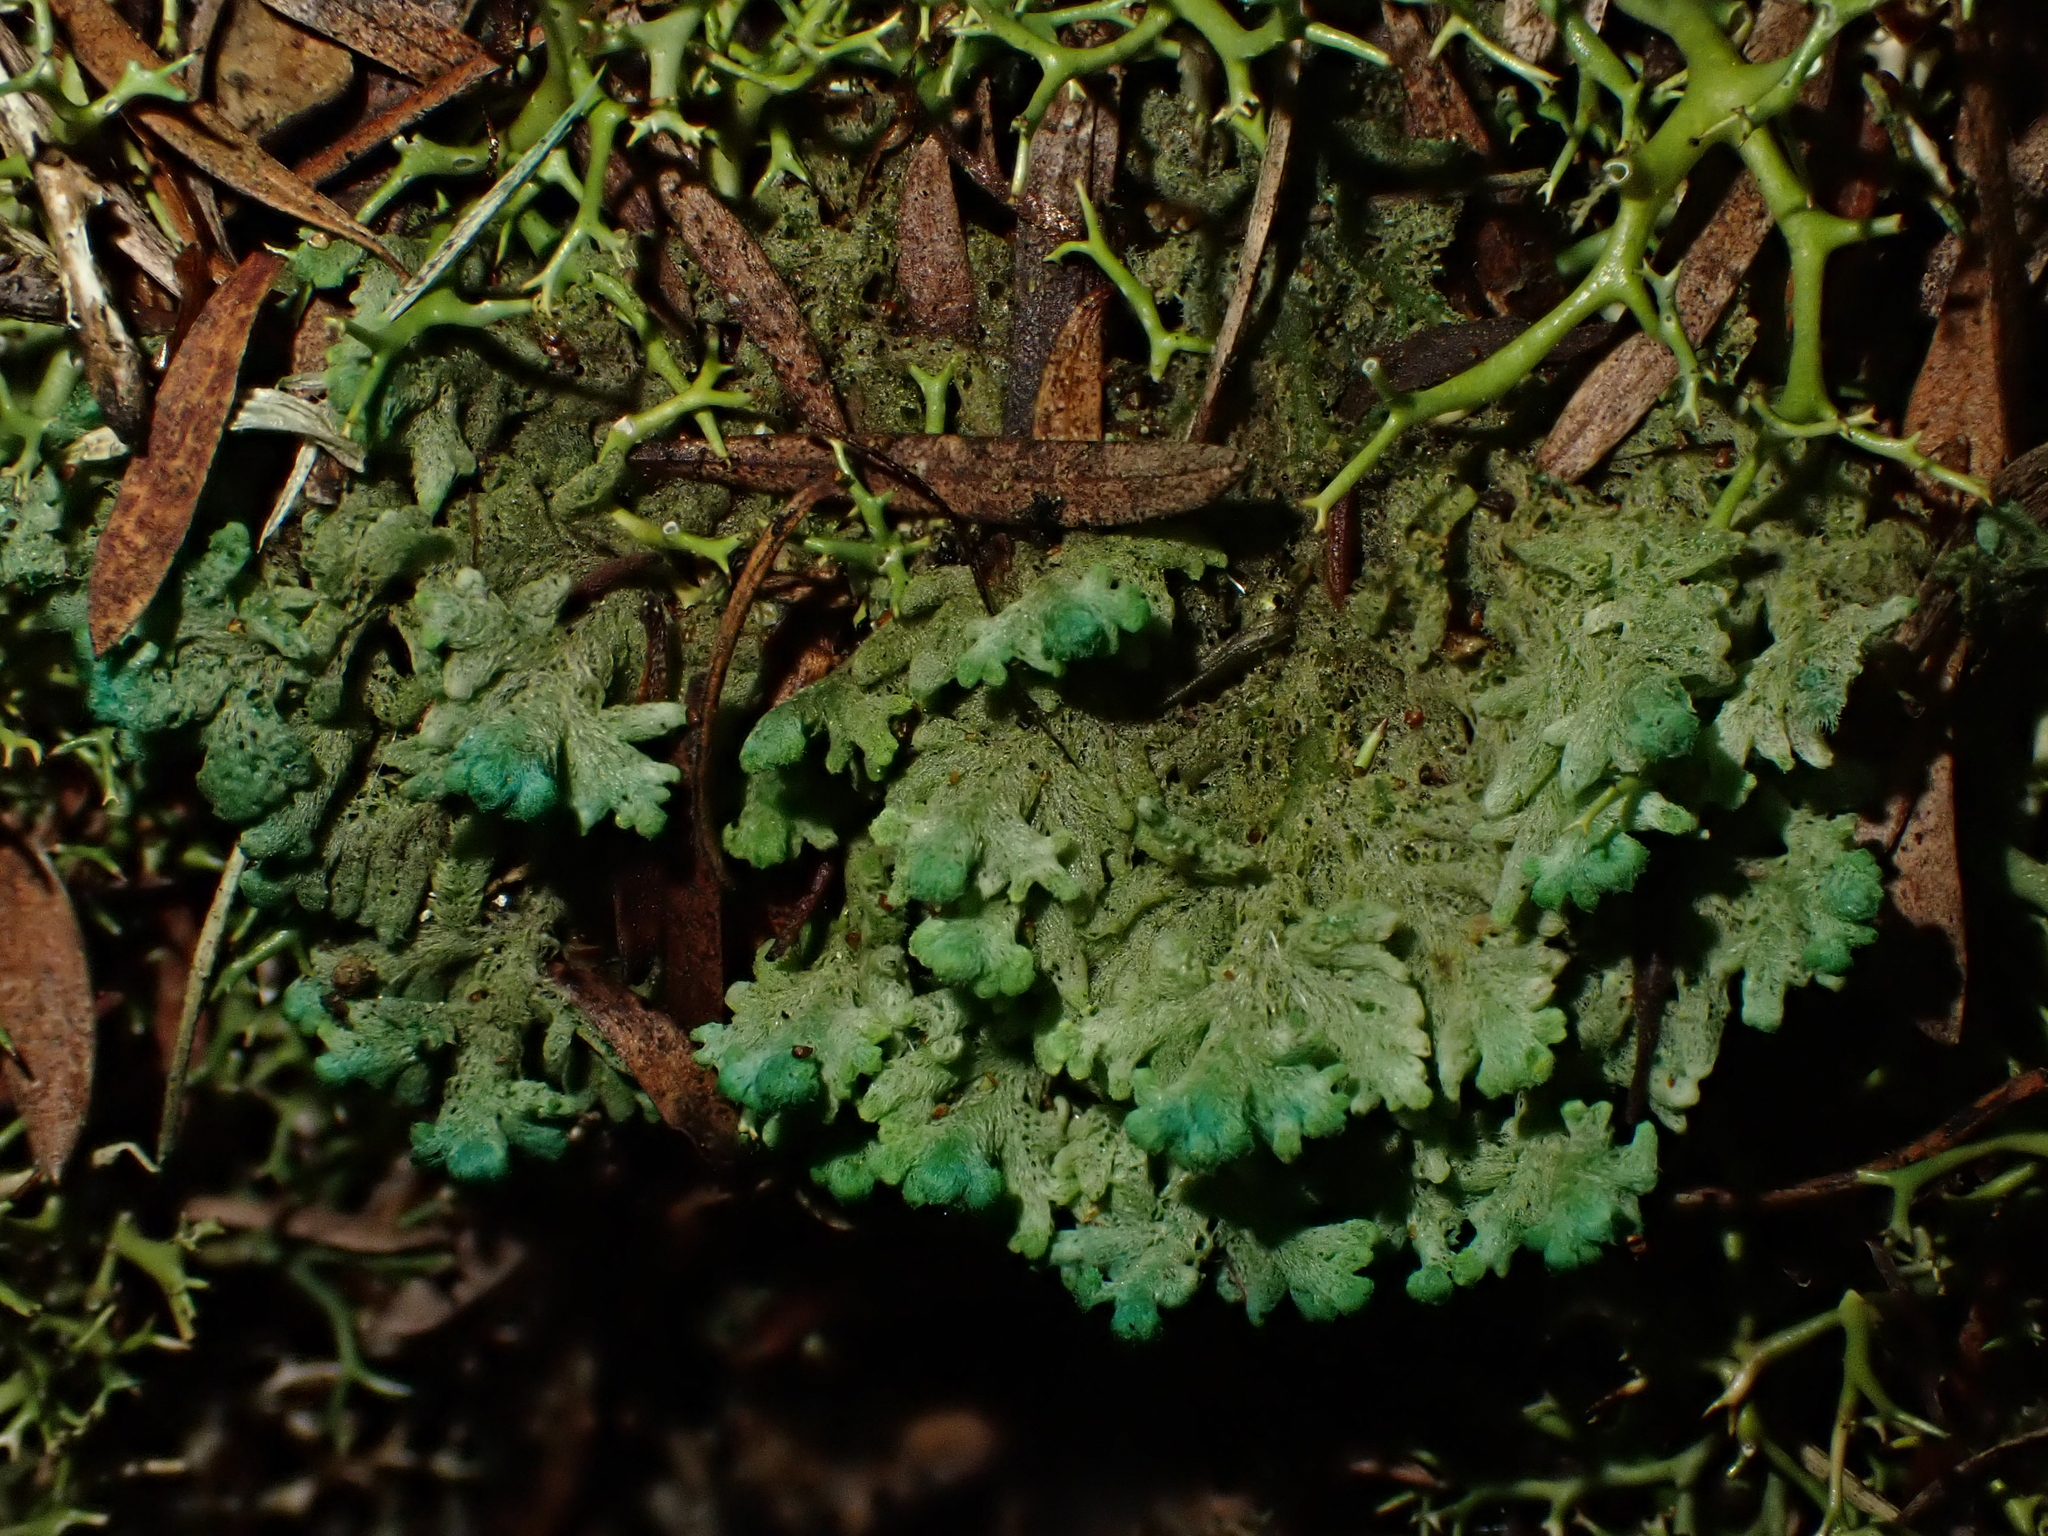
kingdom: Plantae
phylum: Marchantiophyta
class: Jungermanniopsida
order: Jungermanniales
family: Trichocoleaceae
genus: Trichocolea
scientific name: Trichocolea
